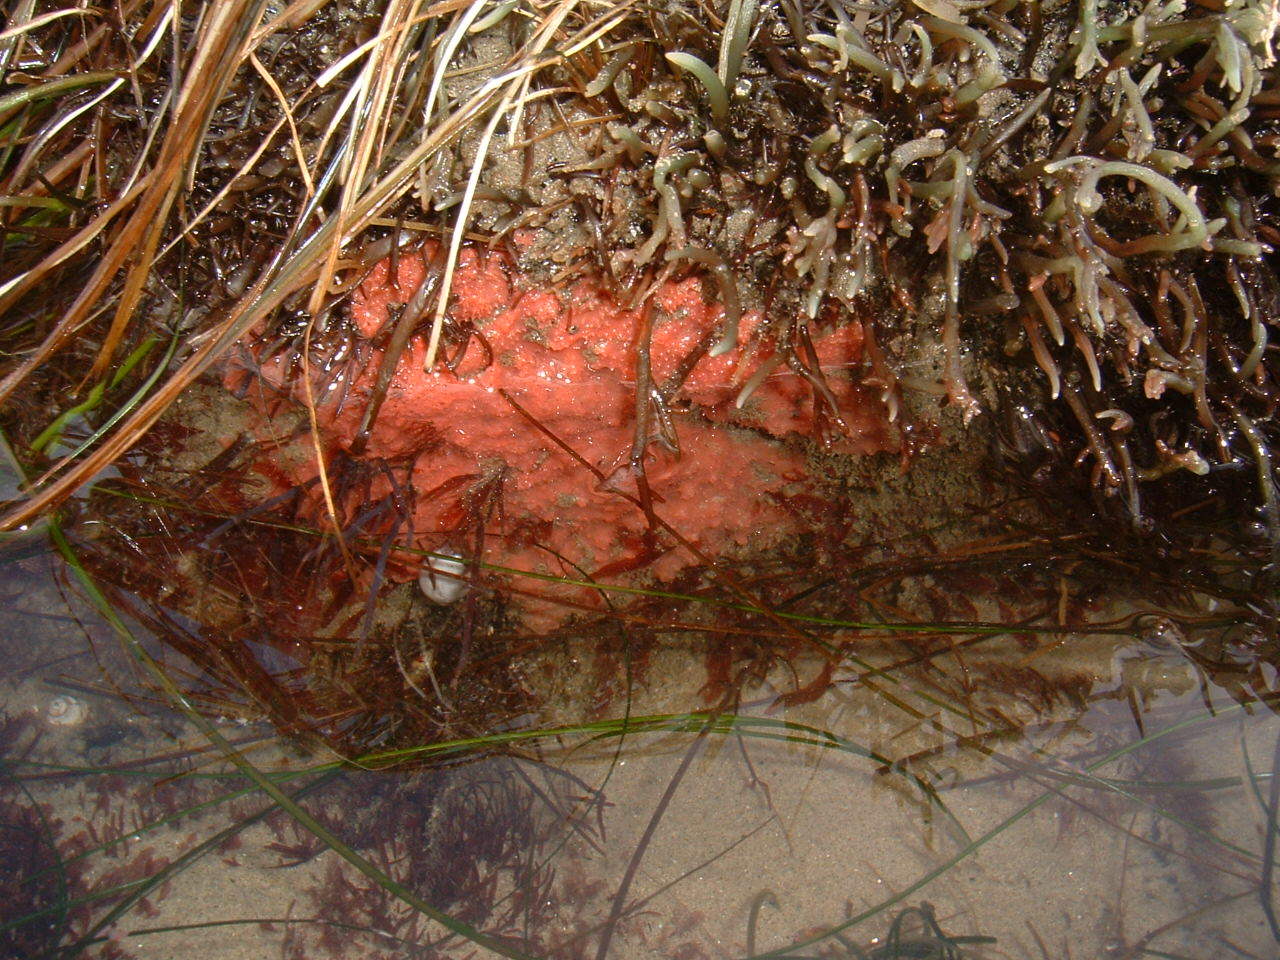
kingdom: Animalia
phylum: Porifera
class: Demospongiae
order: Dendroceratida
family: Darwinellidae
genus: Aplysilla
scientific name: Aplysilla glacialis
